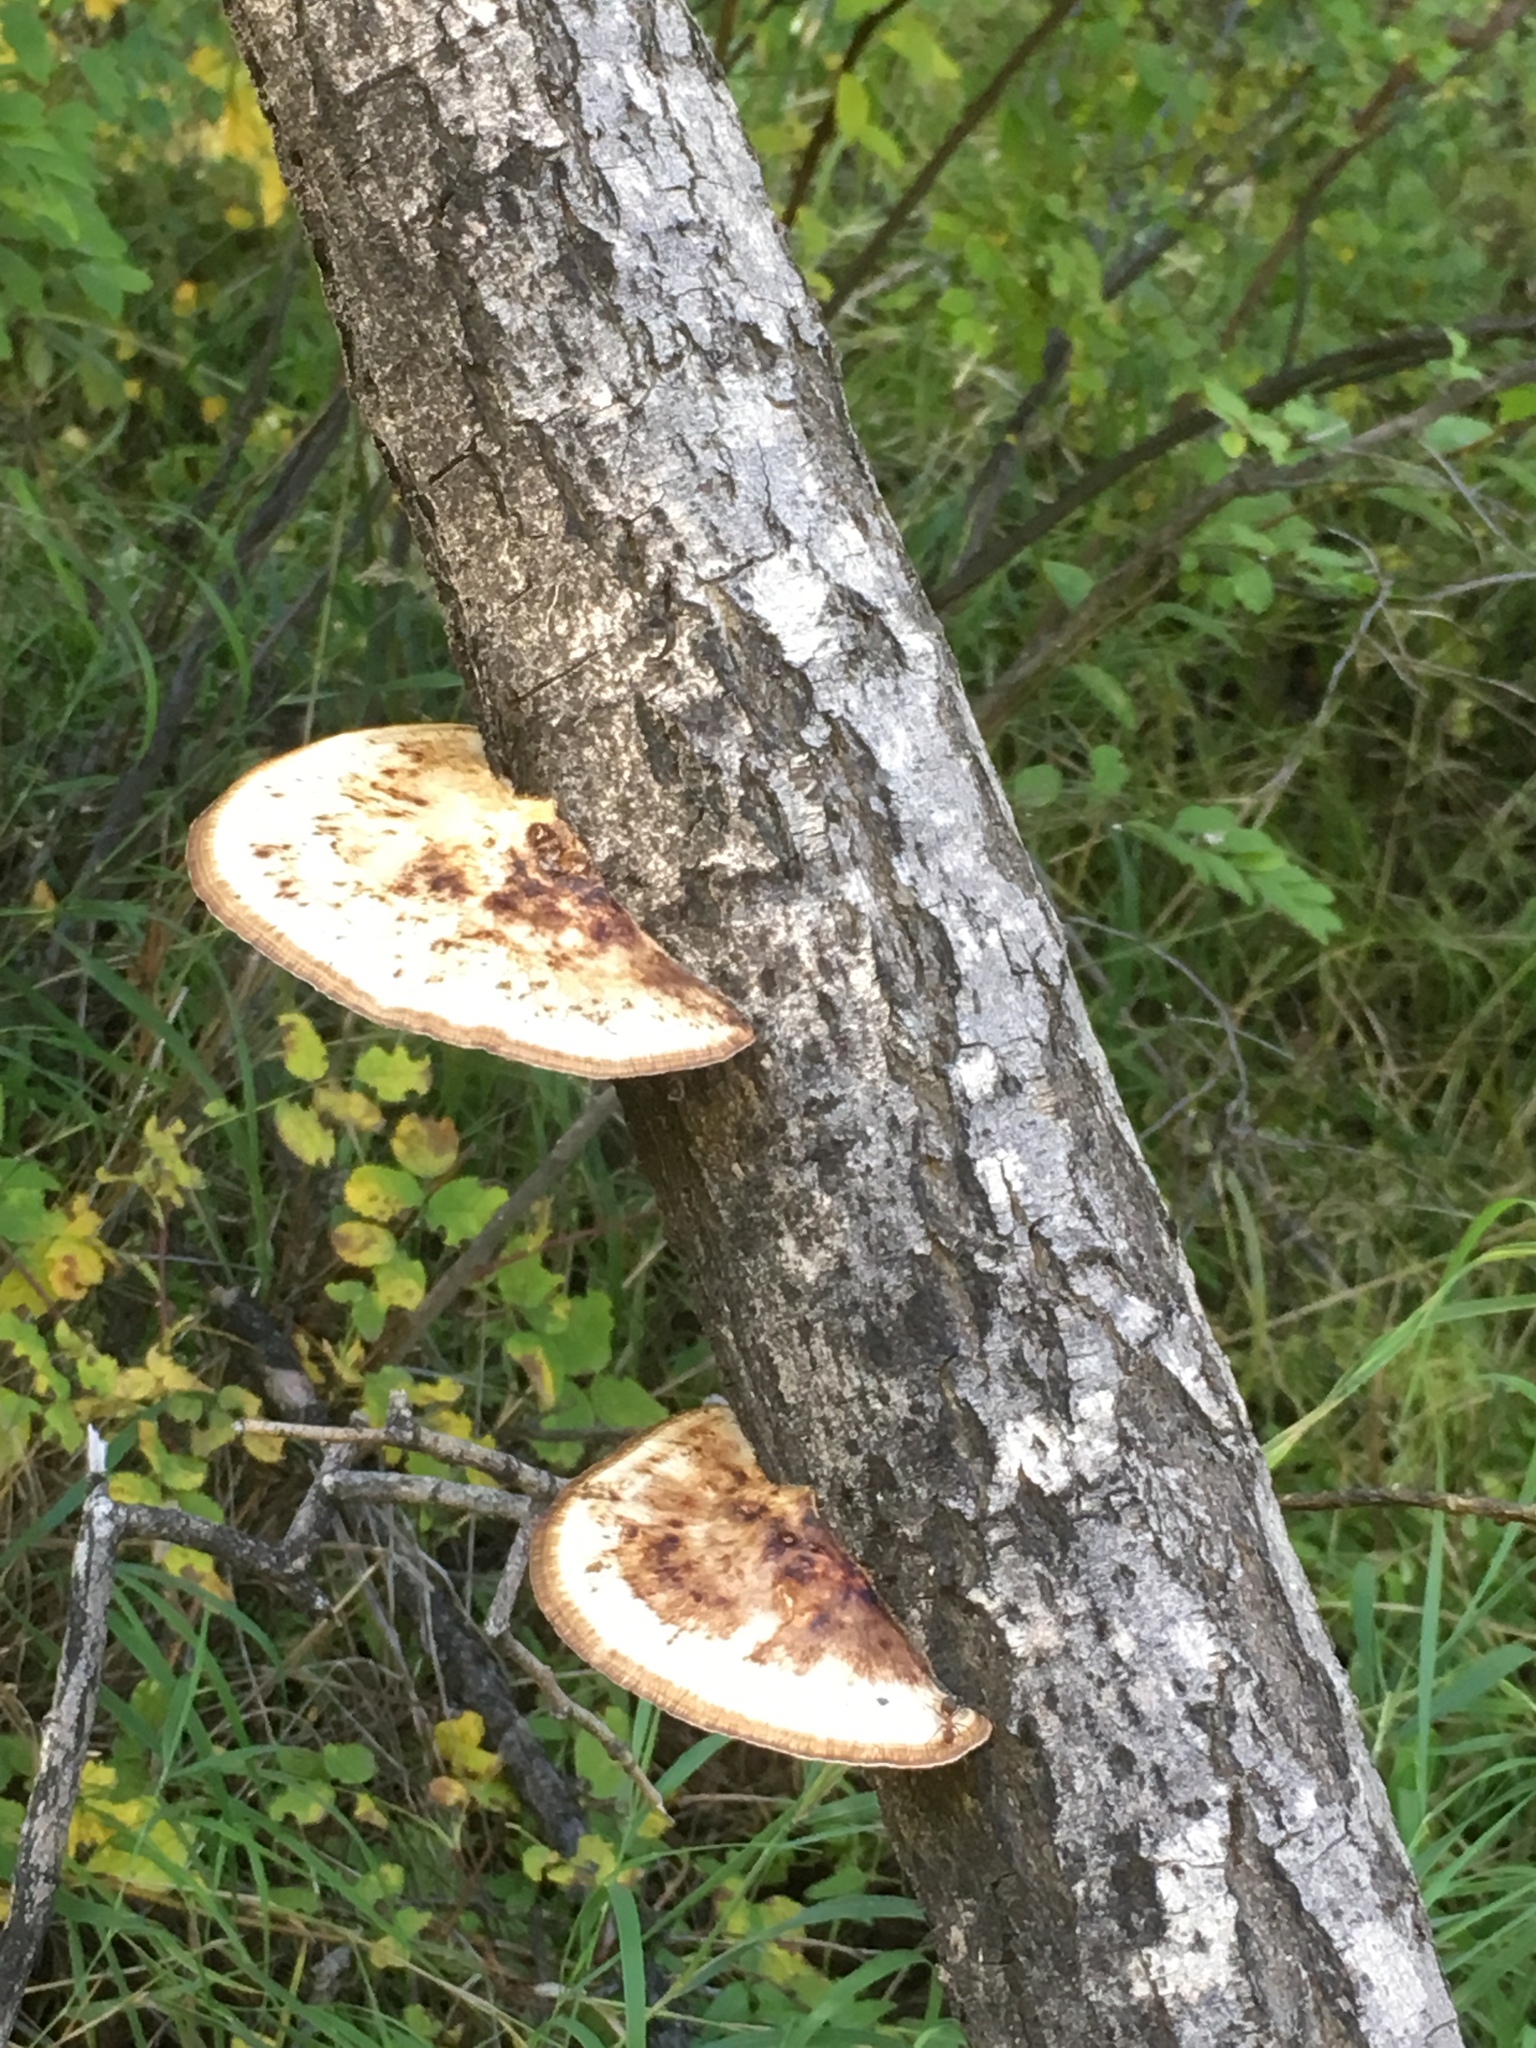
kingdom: Fungi
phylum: Basidiomycota
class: Agaricomycetes
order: Polyporales
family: Polyporaceae
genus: Daedaleopsis
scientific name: Daedaleopsis confragosa
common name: Blushing bracket
